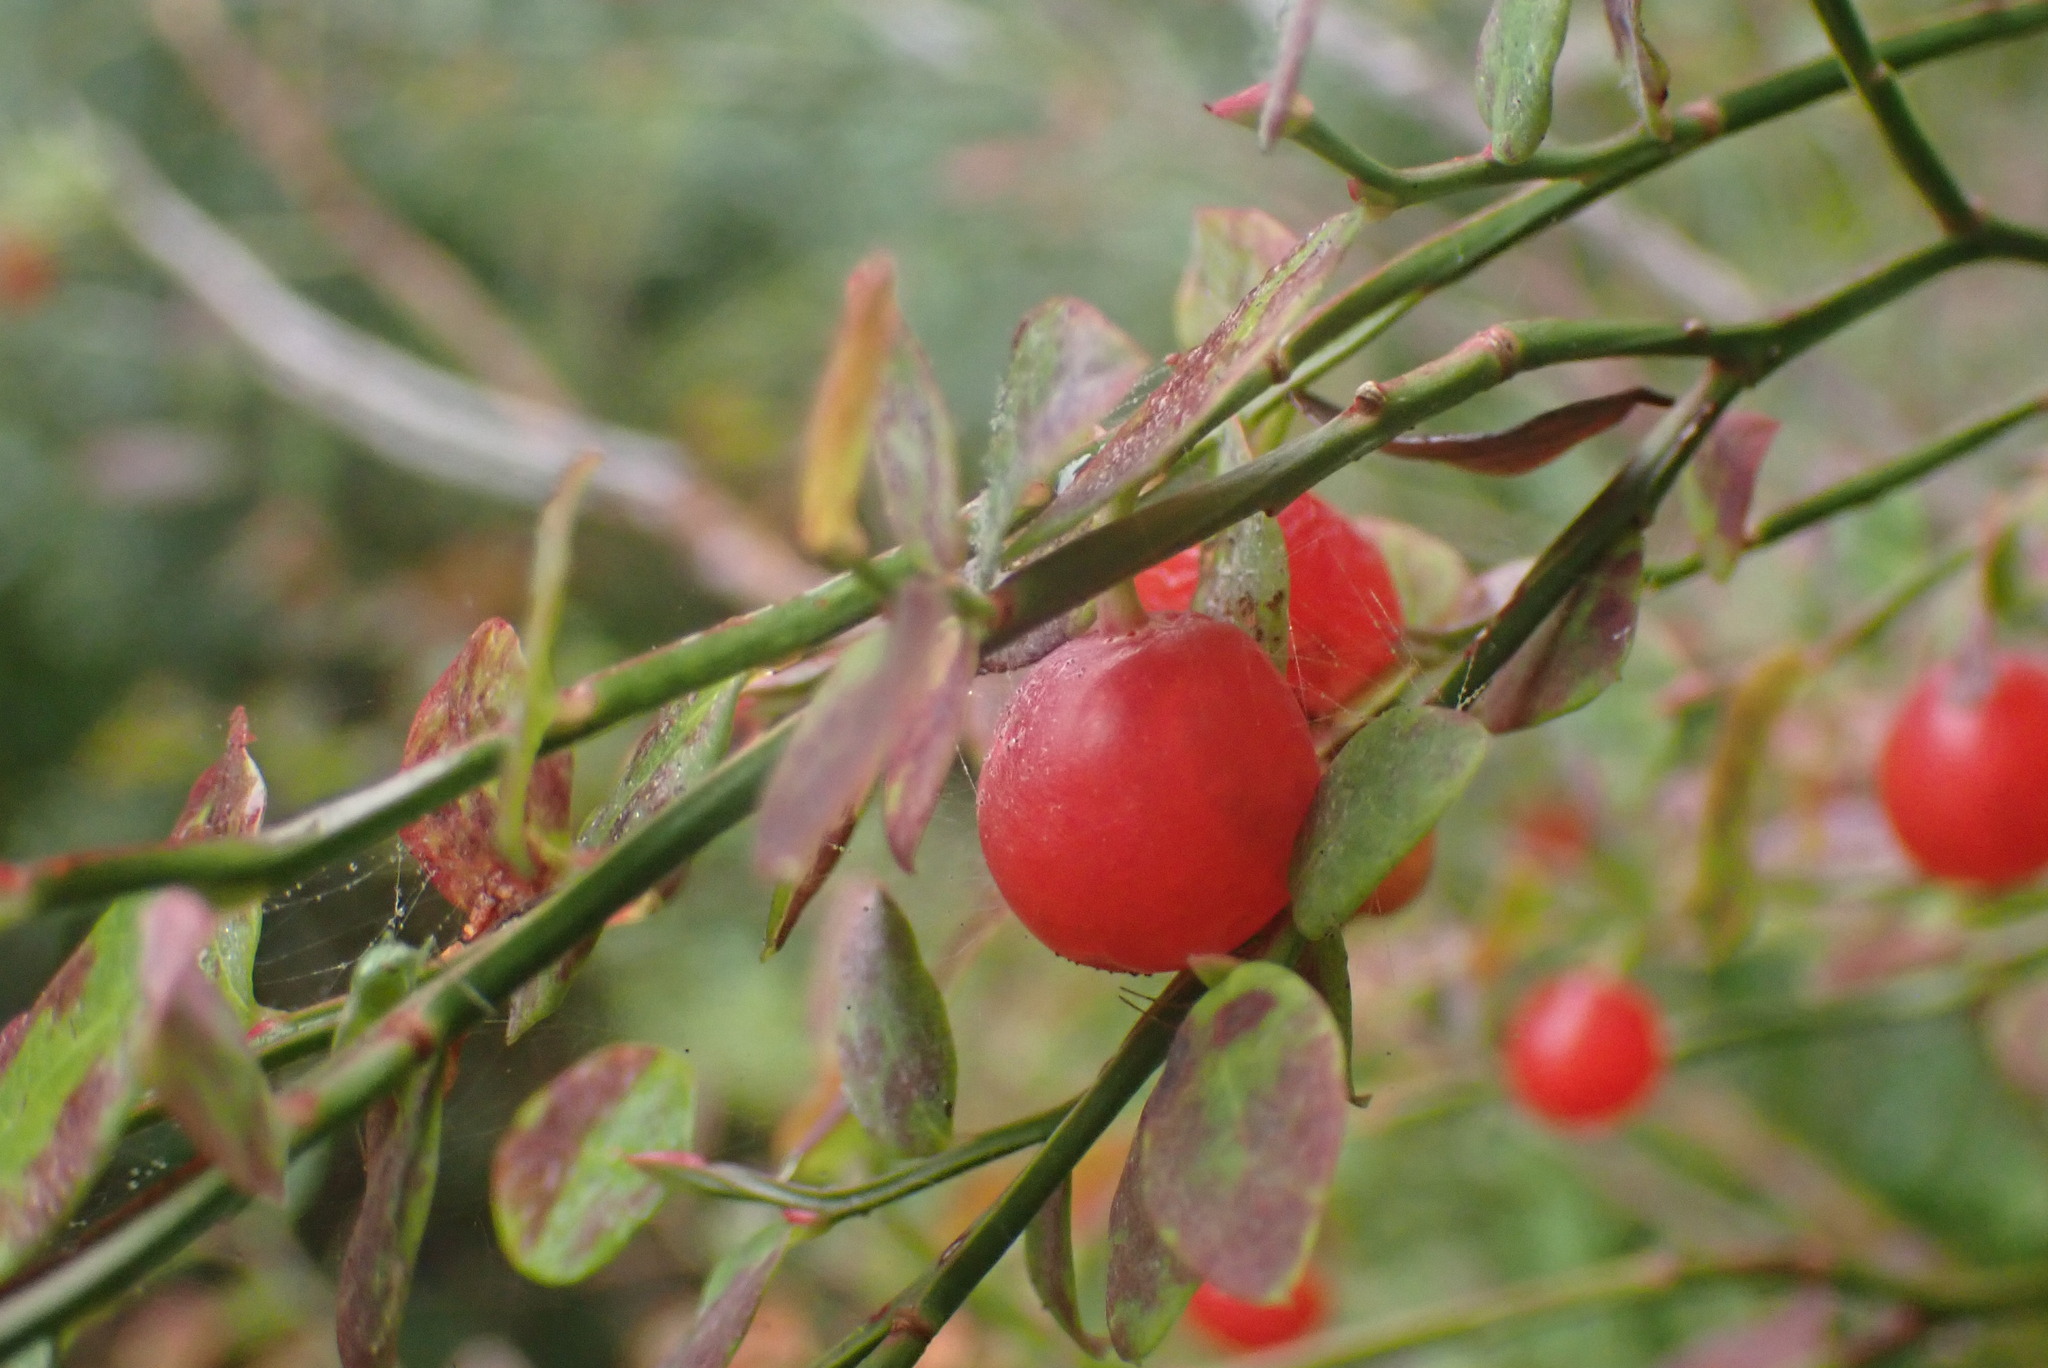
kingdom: Plantae
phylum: Tracheophyta
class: Magnoliopsida
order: Ericales
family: Ericaceae
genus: Vaccinium
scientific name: Vaccinium parvifolium
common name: Red-huckleberry
